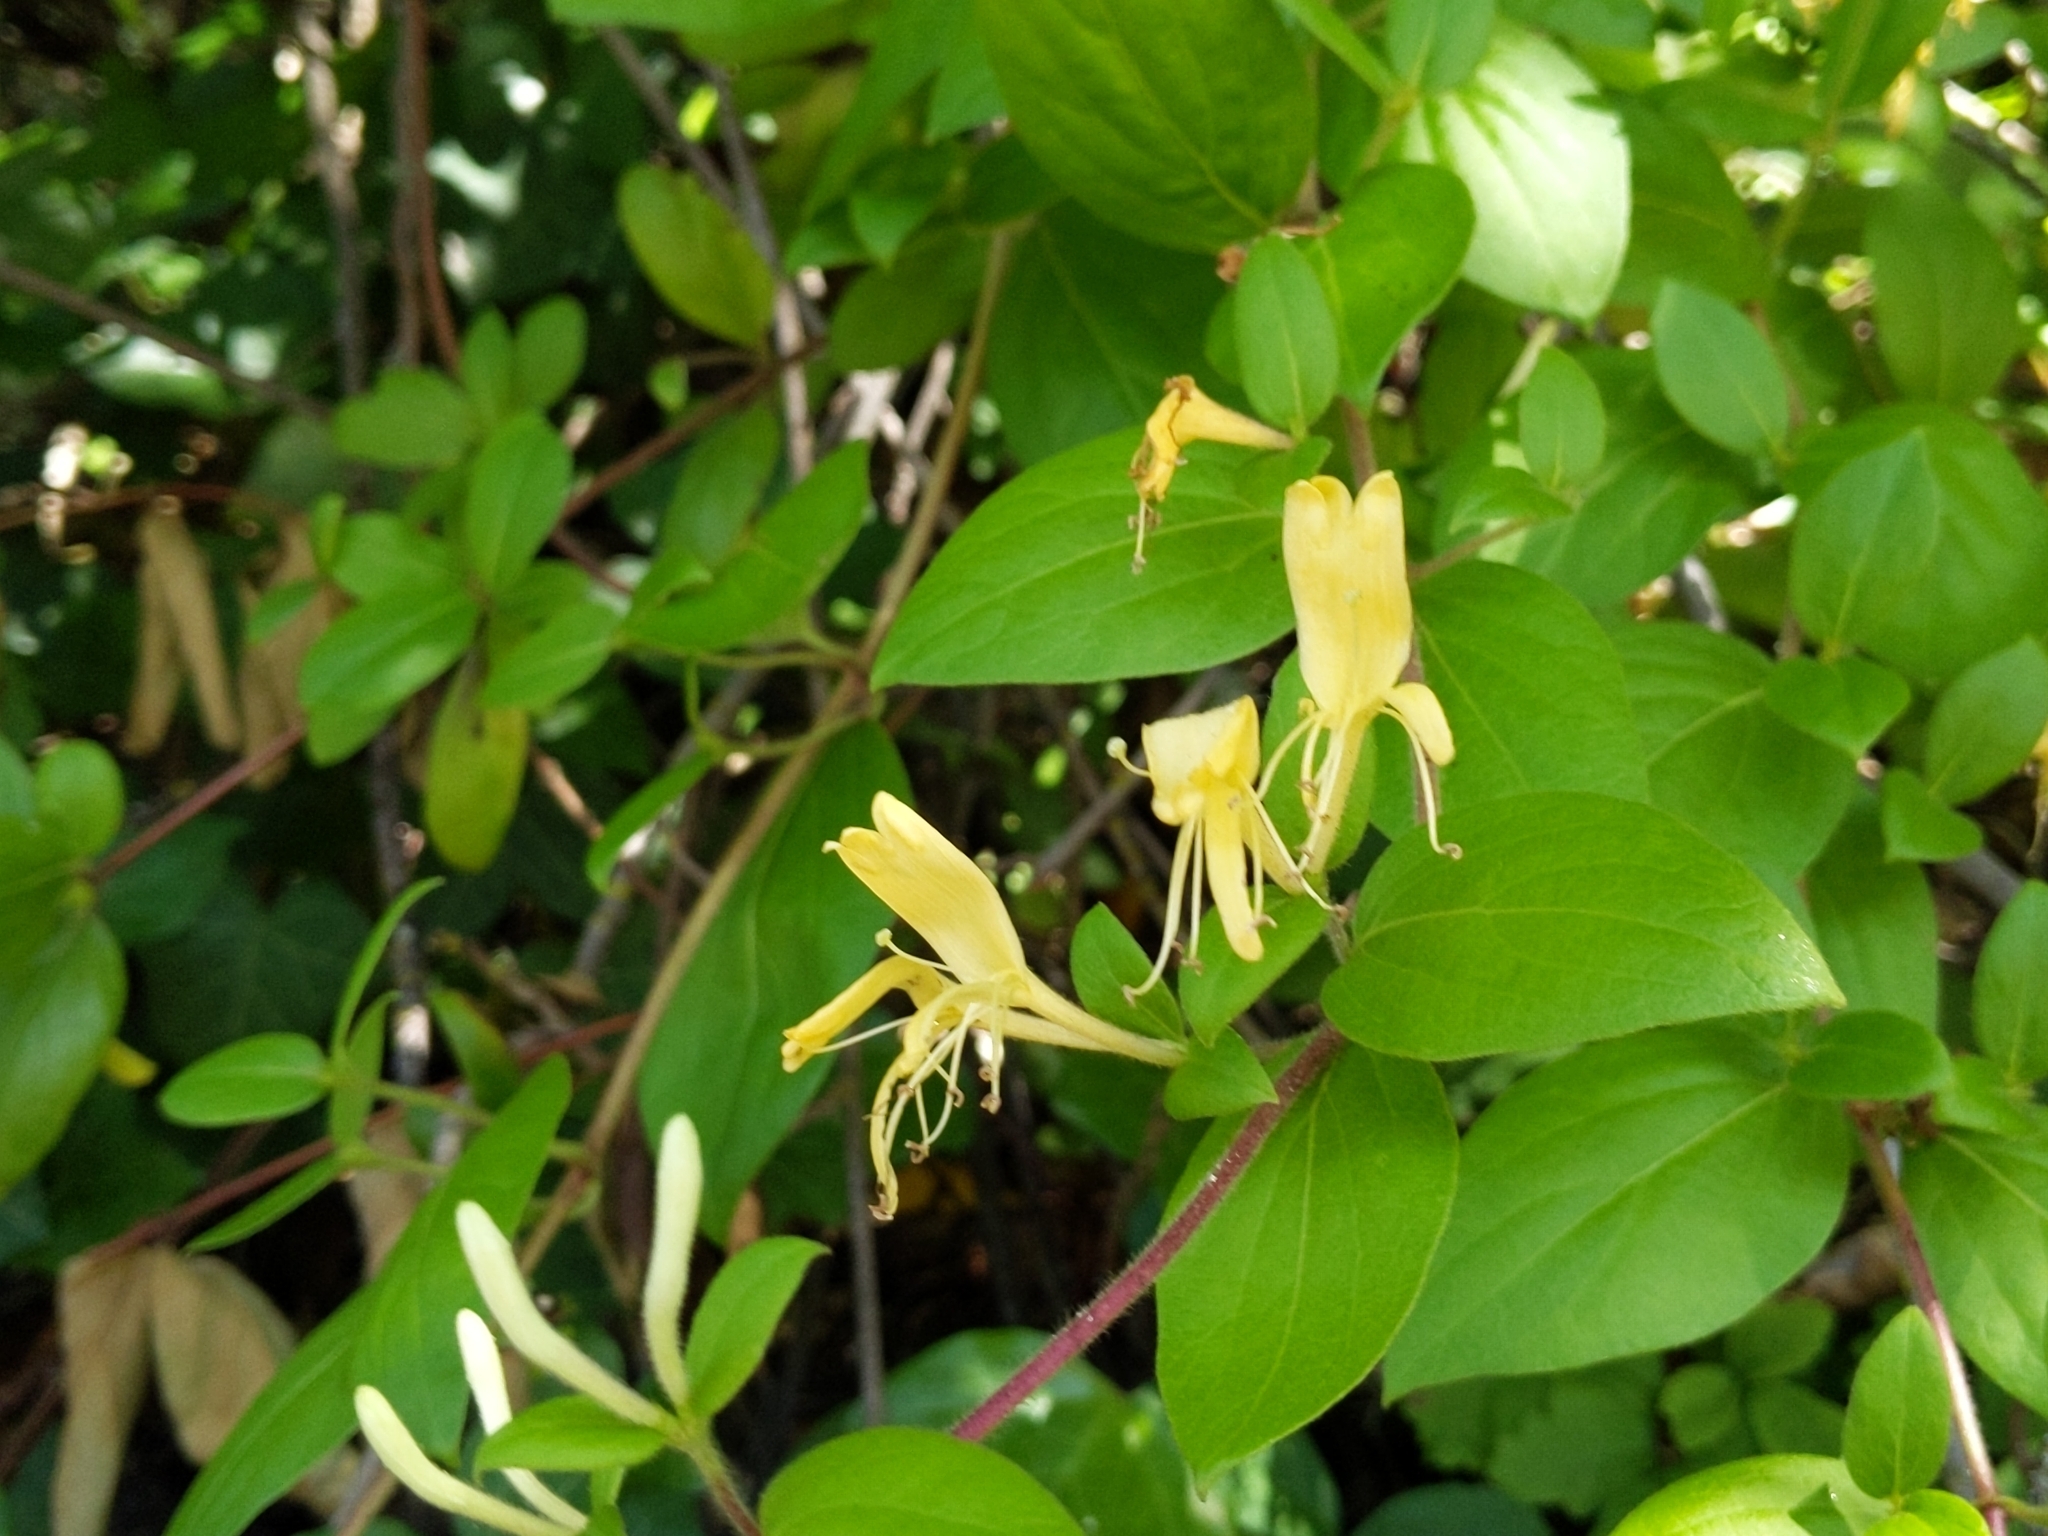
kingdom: Plantae
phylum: Tracheophyta
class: Magnoliopsida
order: Dipsacales
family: Caprifoliaceae
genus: Lonicera
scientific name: Lonicera japonica
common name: Japanese honeysuckle
